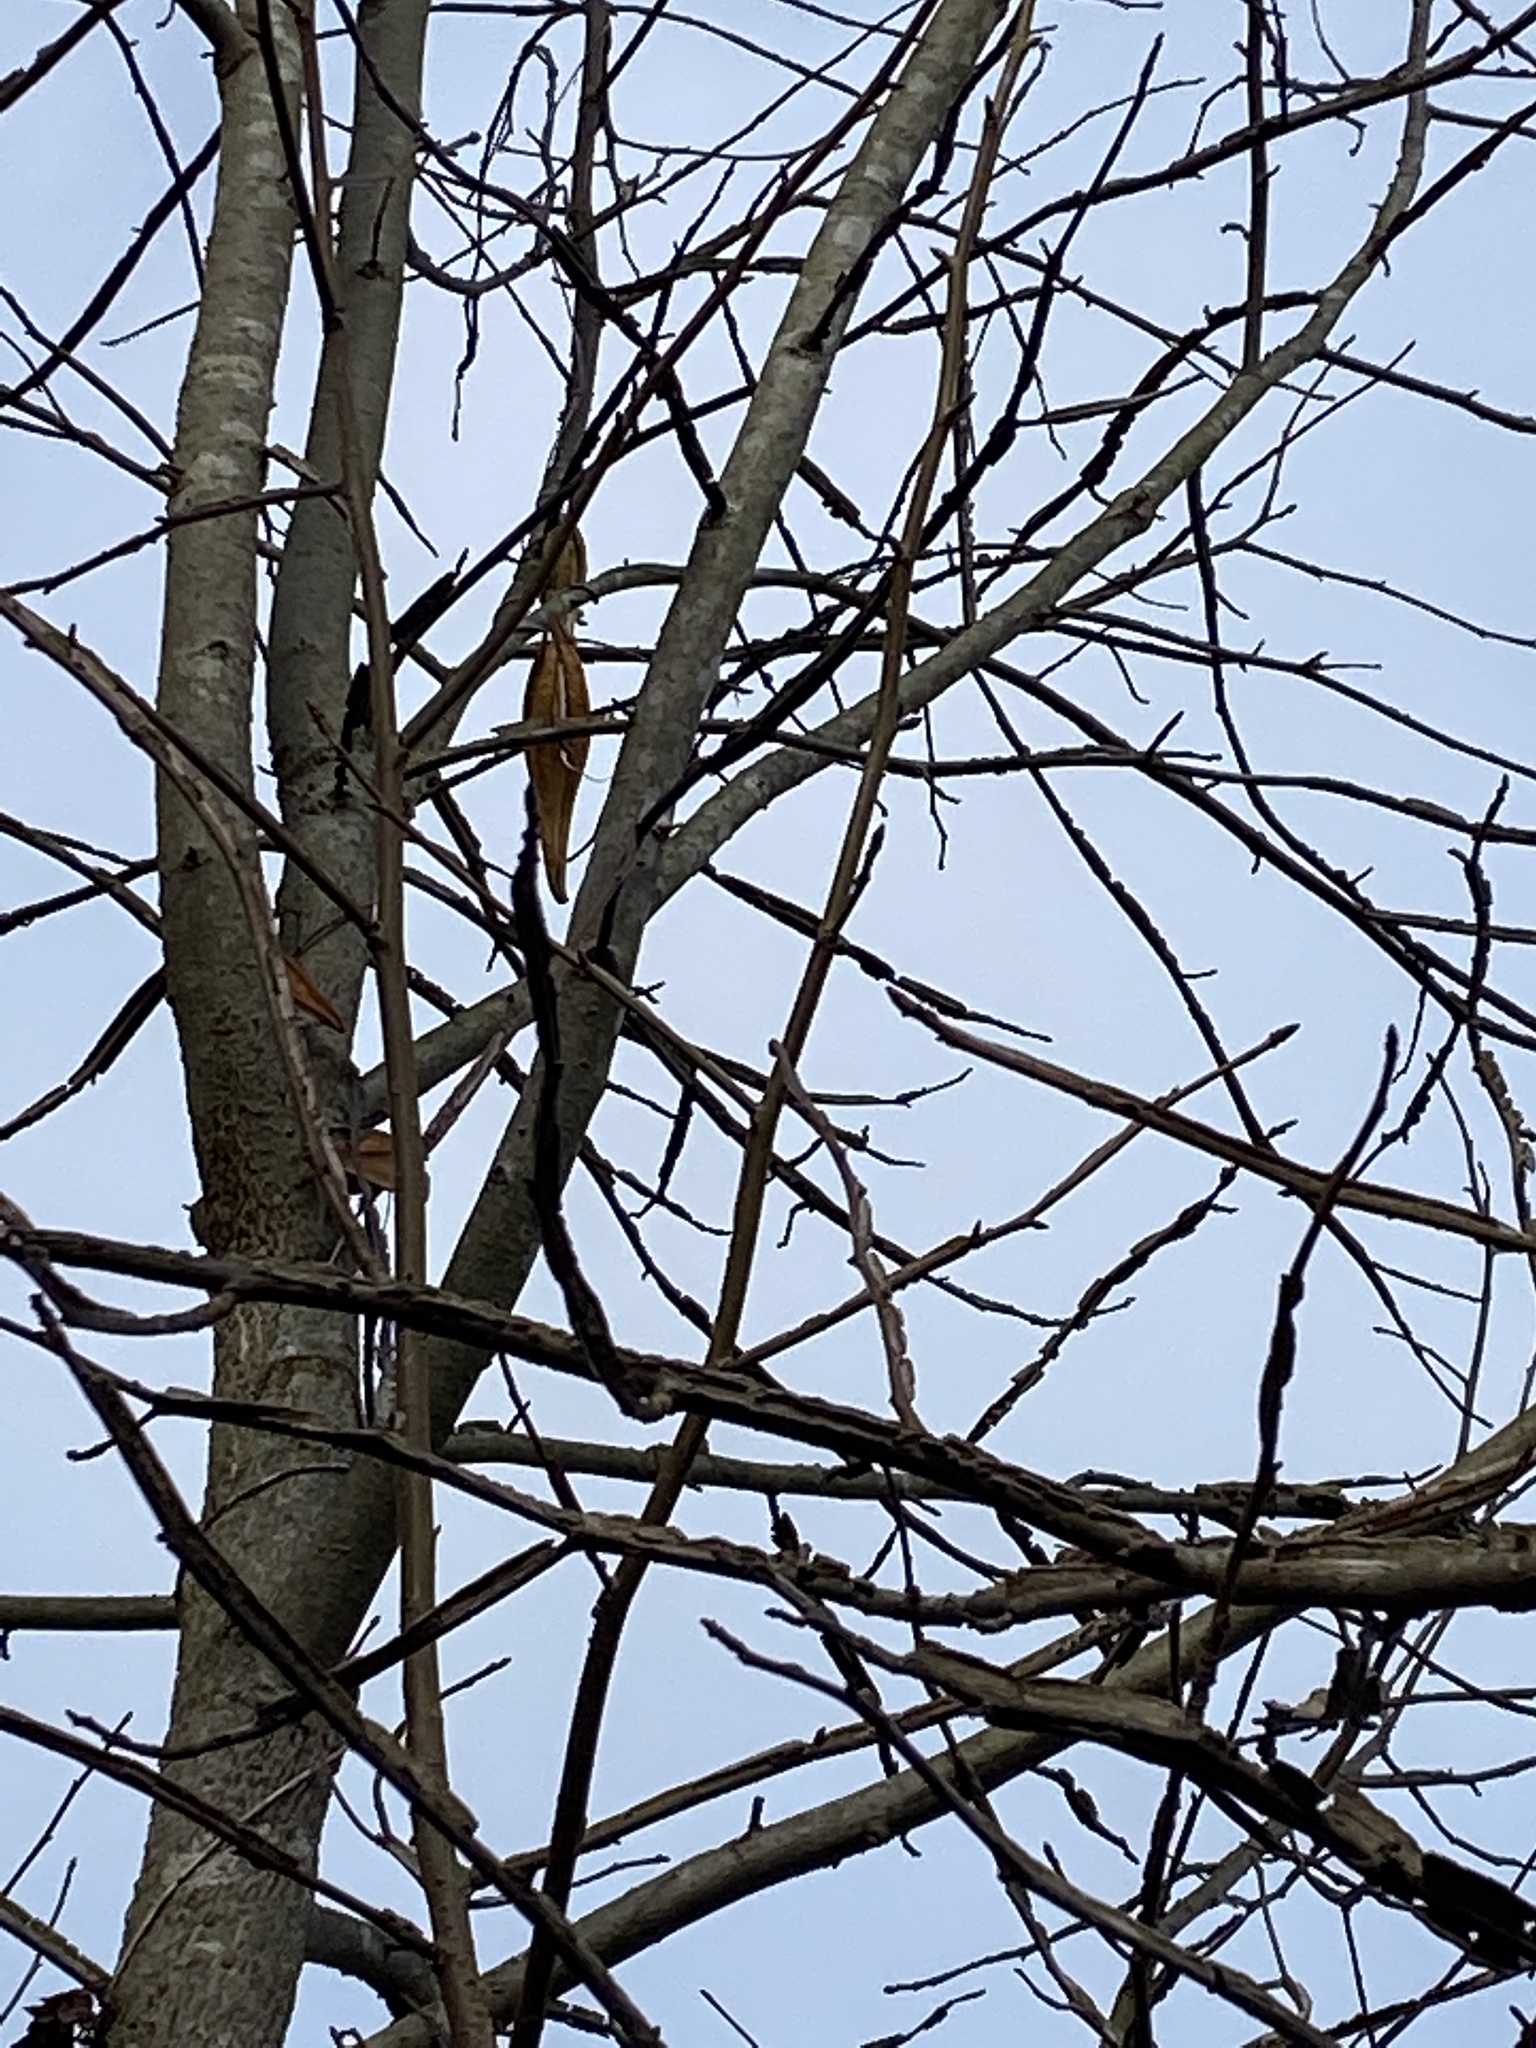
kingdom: Plantae
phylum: Tracheophyta
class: Magnoliopsida
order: Gentianales
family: Apocynaceae
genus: Gonolobus
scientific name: Gonolobus suberosus
